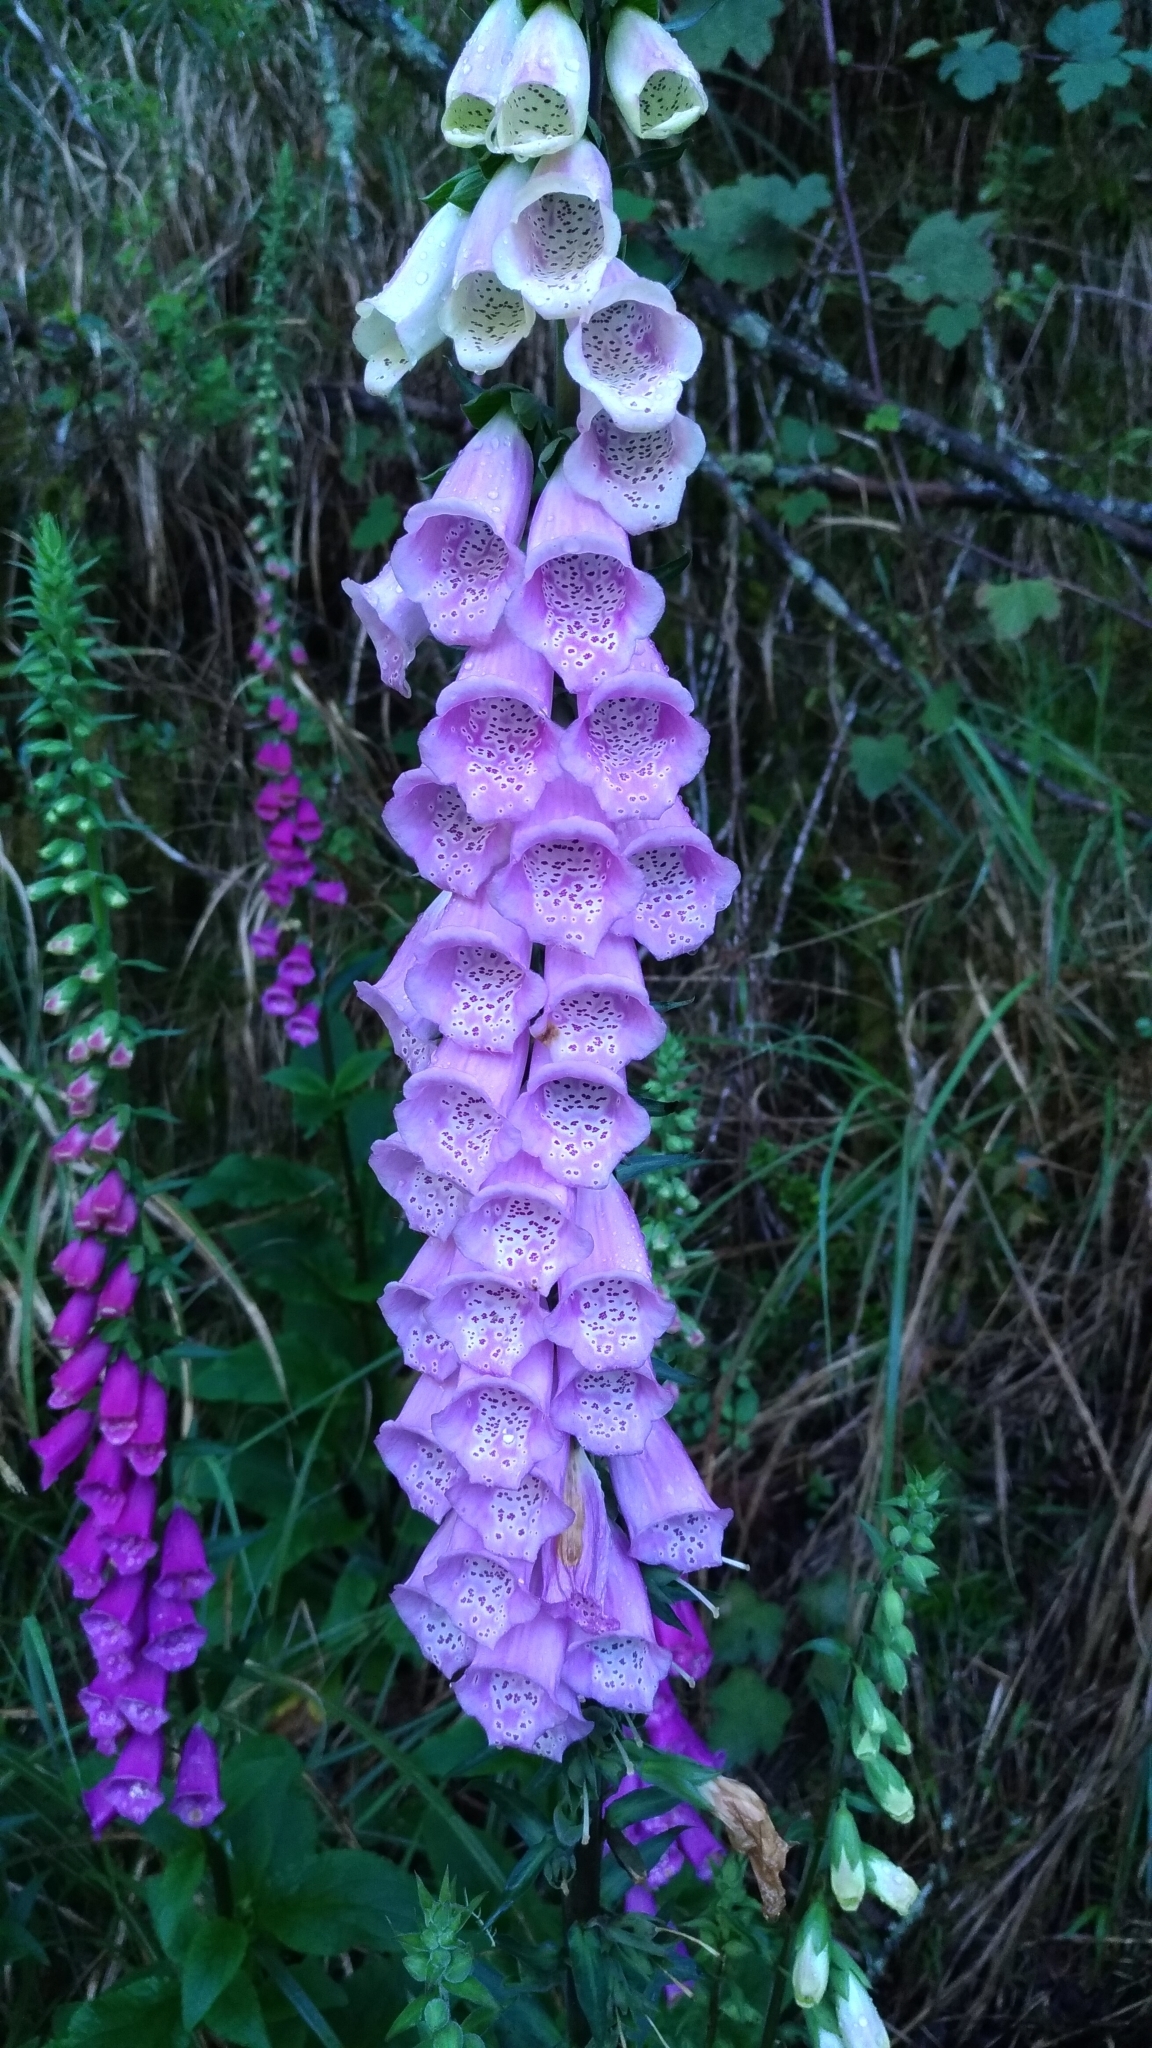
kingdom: Plantae
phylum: Tracheophyta
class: Magnoliopsida
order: Lamiales
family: Plantaginaceae
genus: Digitalis
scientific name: Digitalis purpurea
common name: Foxglove
